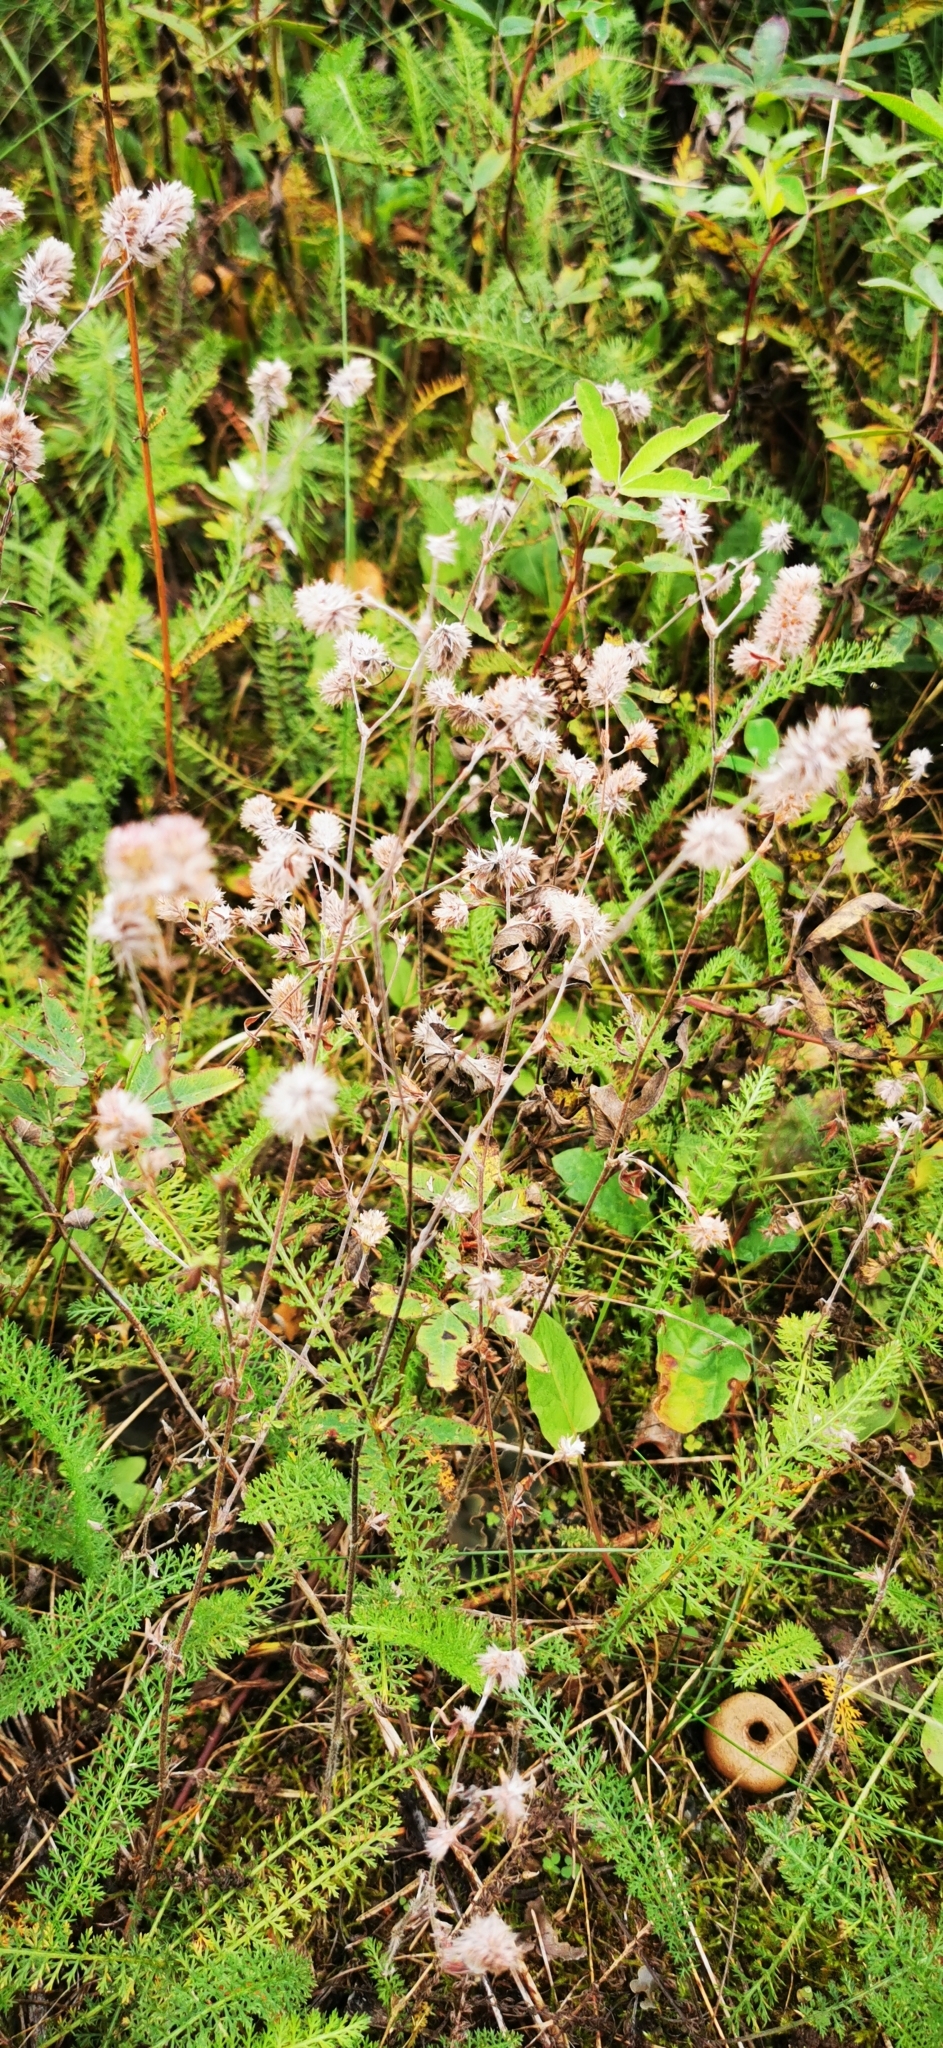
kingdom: Plantae
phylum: Tracheophyta
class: Magnoliopsida
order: Fabales
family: Fabaceae
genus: Trifolium
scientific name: Trifolium arvense
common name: Hare's-foot clover
